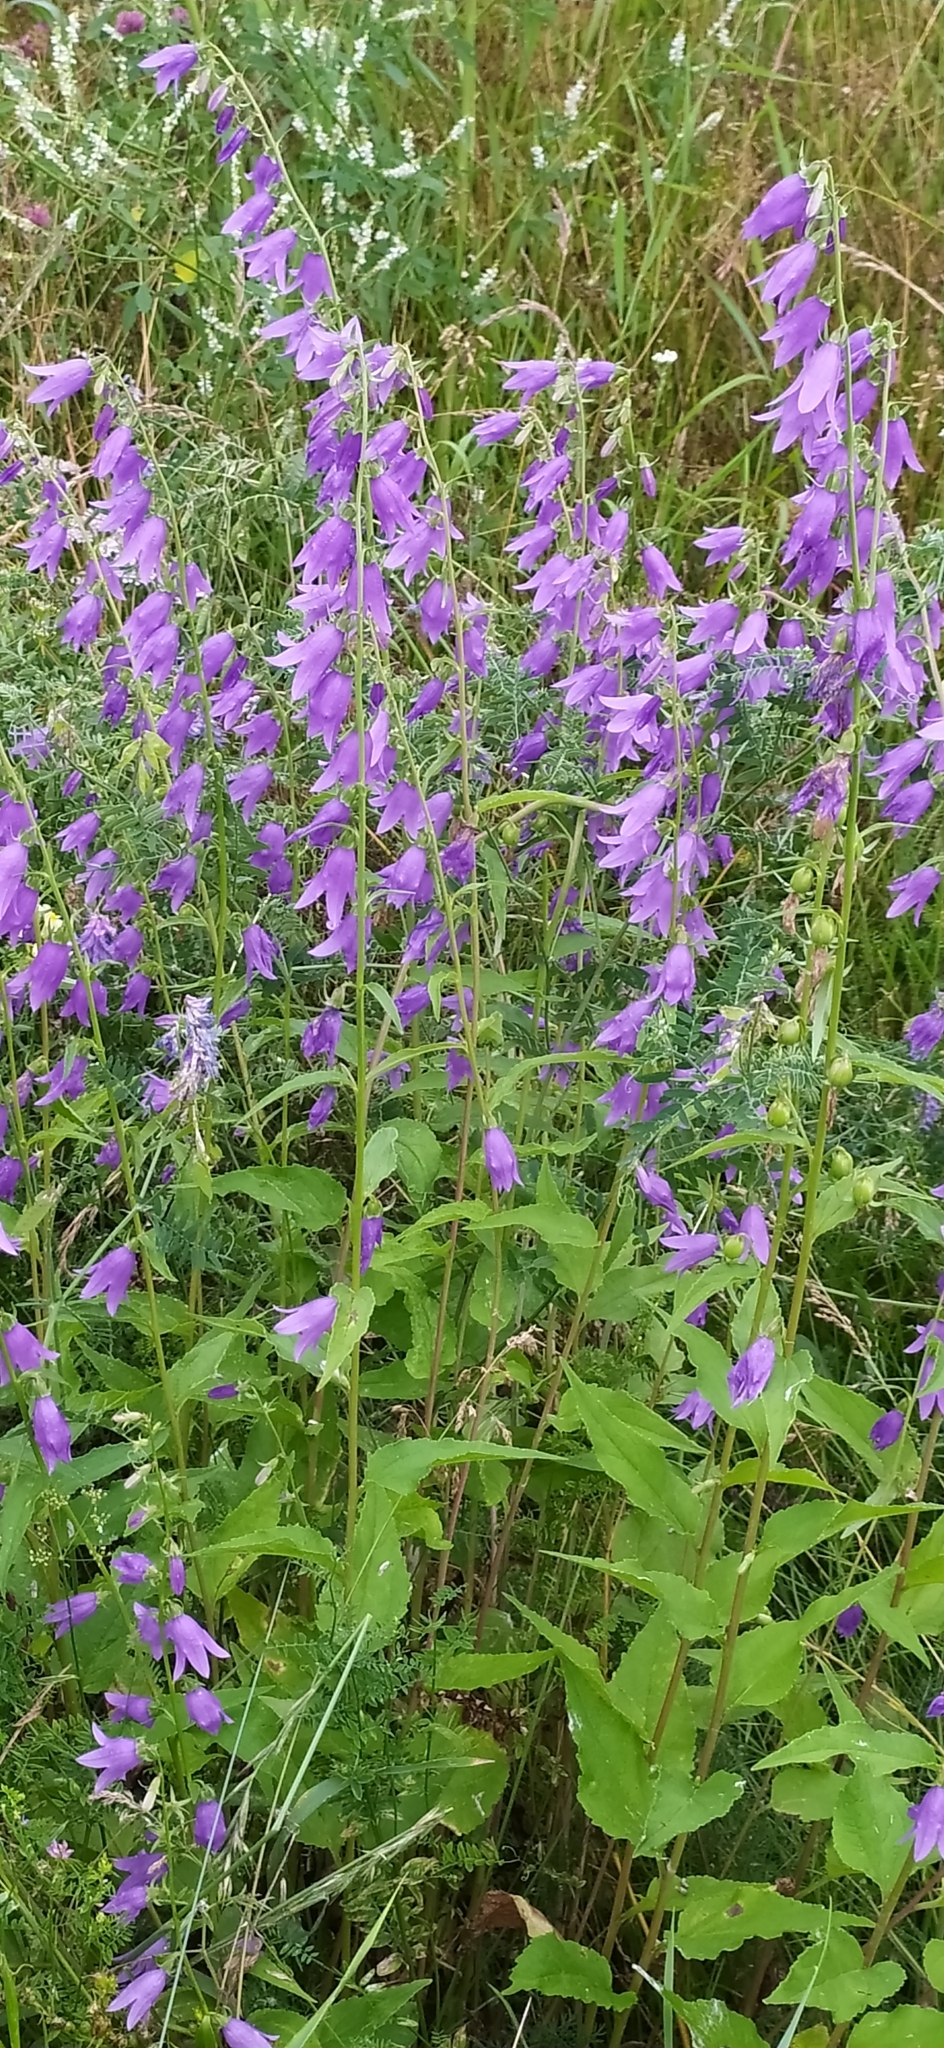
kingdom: Plantae
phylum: Tracheophyta
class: Magnoliopsida
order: Asterales
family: Campanulaceae
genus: Campanula
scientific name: Campanula rapunculoides
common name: Creeping bellflower
